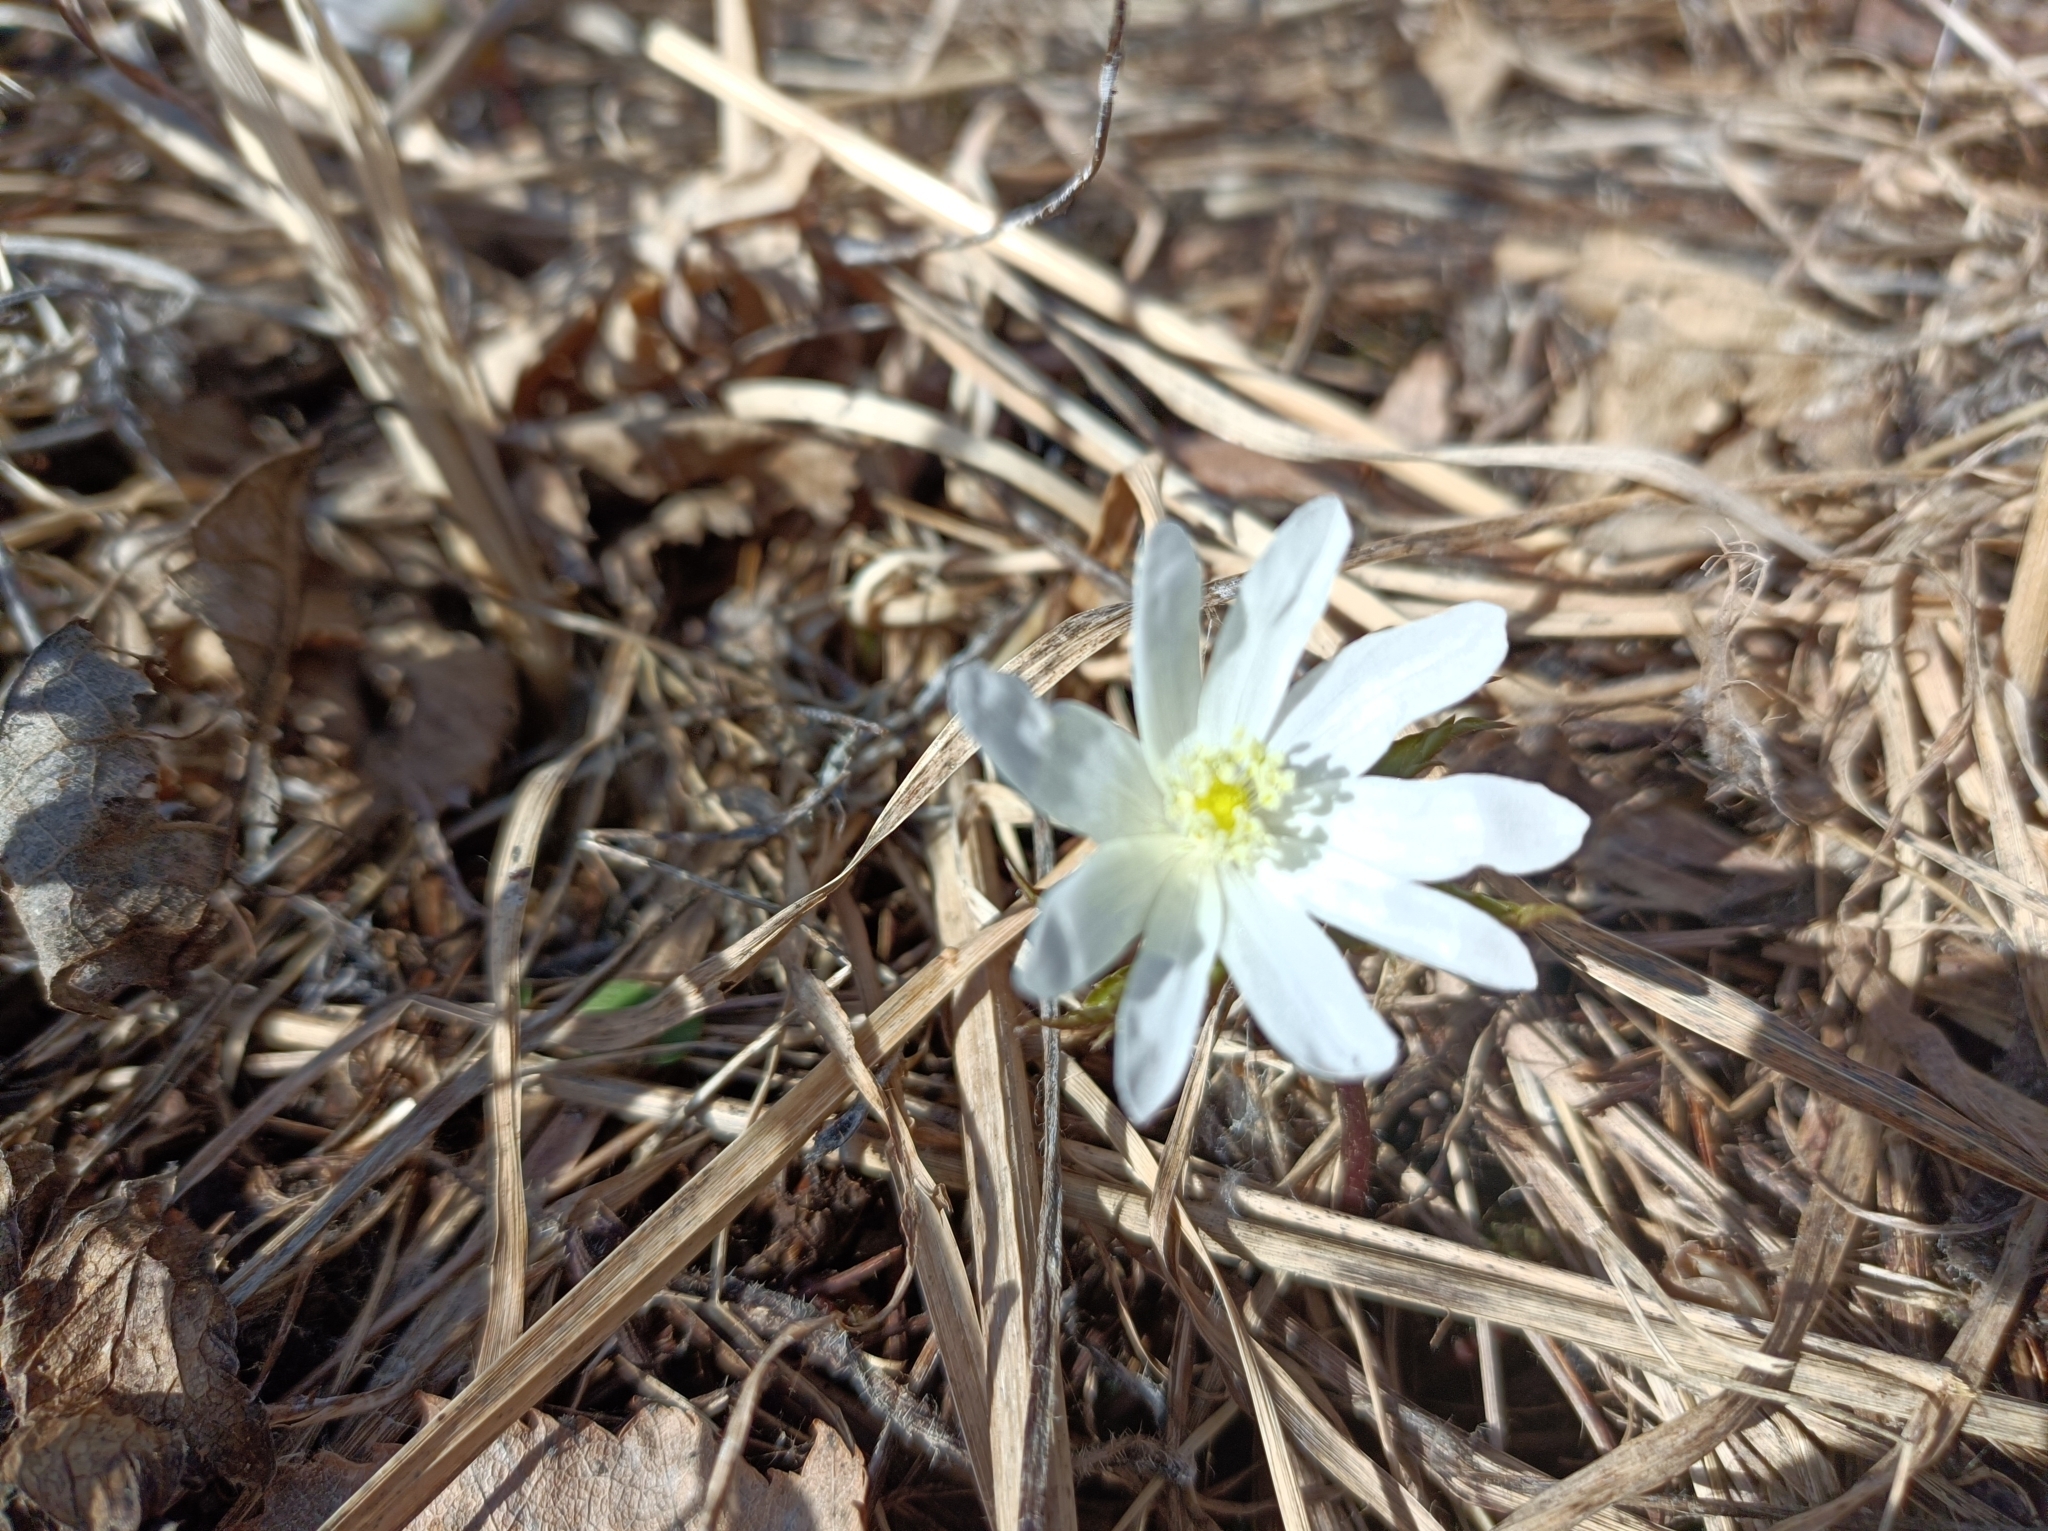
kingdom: Plantae
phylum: Tracheophyta
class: Magnoliopsida
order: Ranunculales
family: Ranunculaceae
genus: Anemone
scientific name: Anemone altaica
